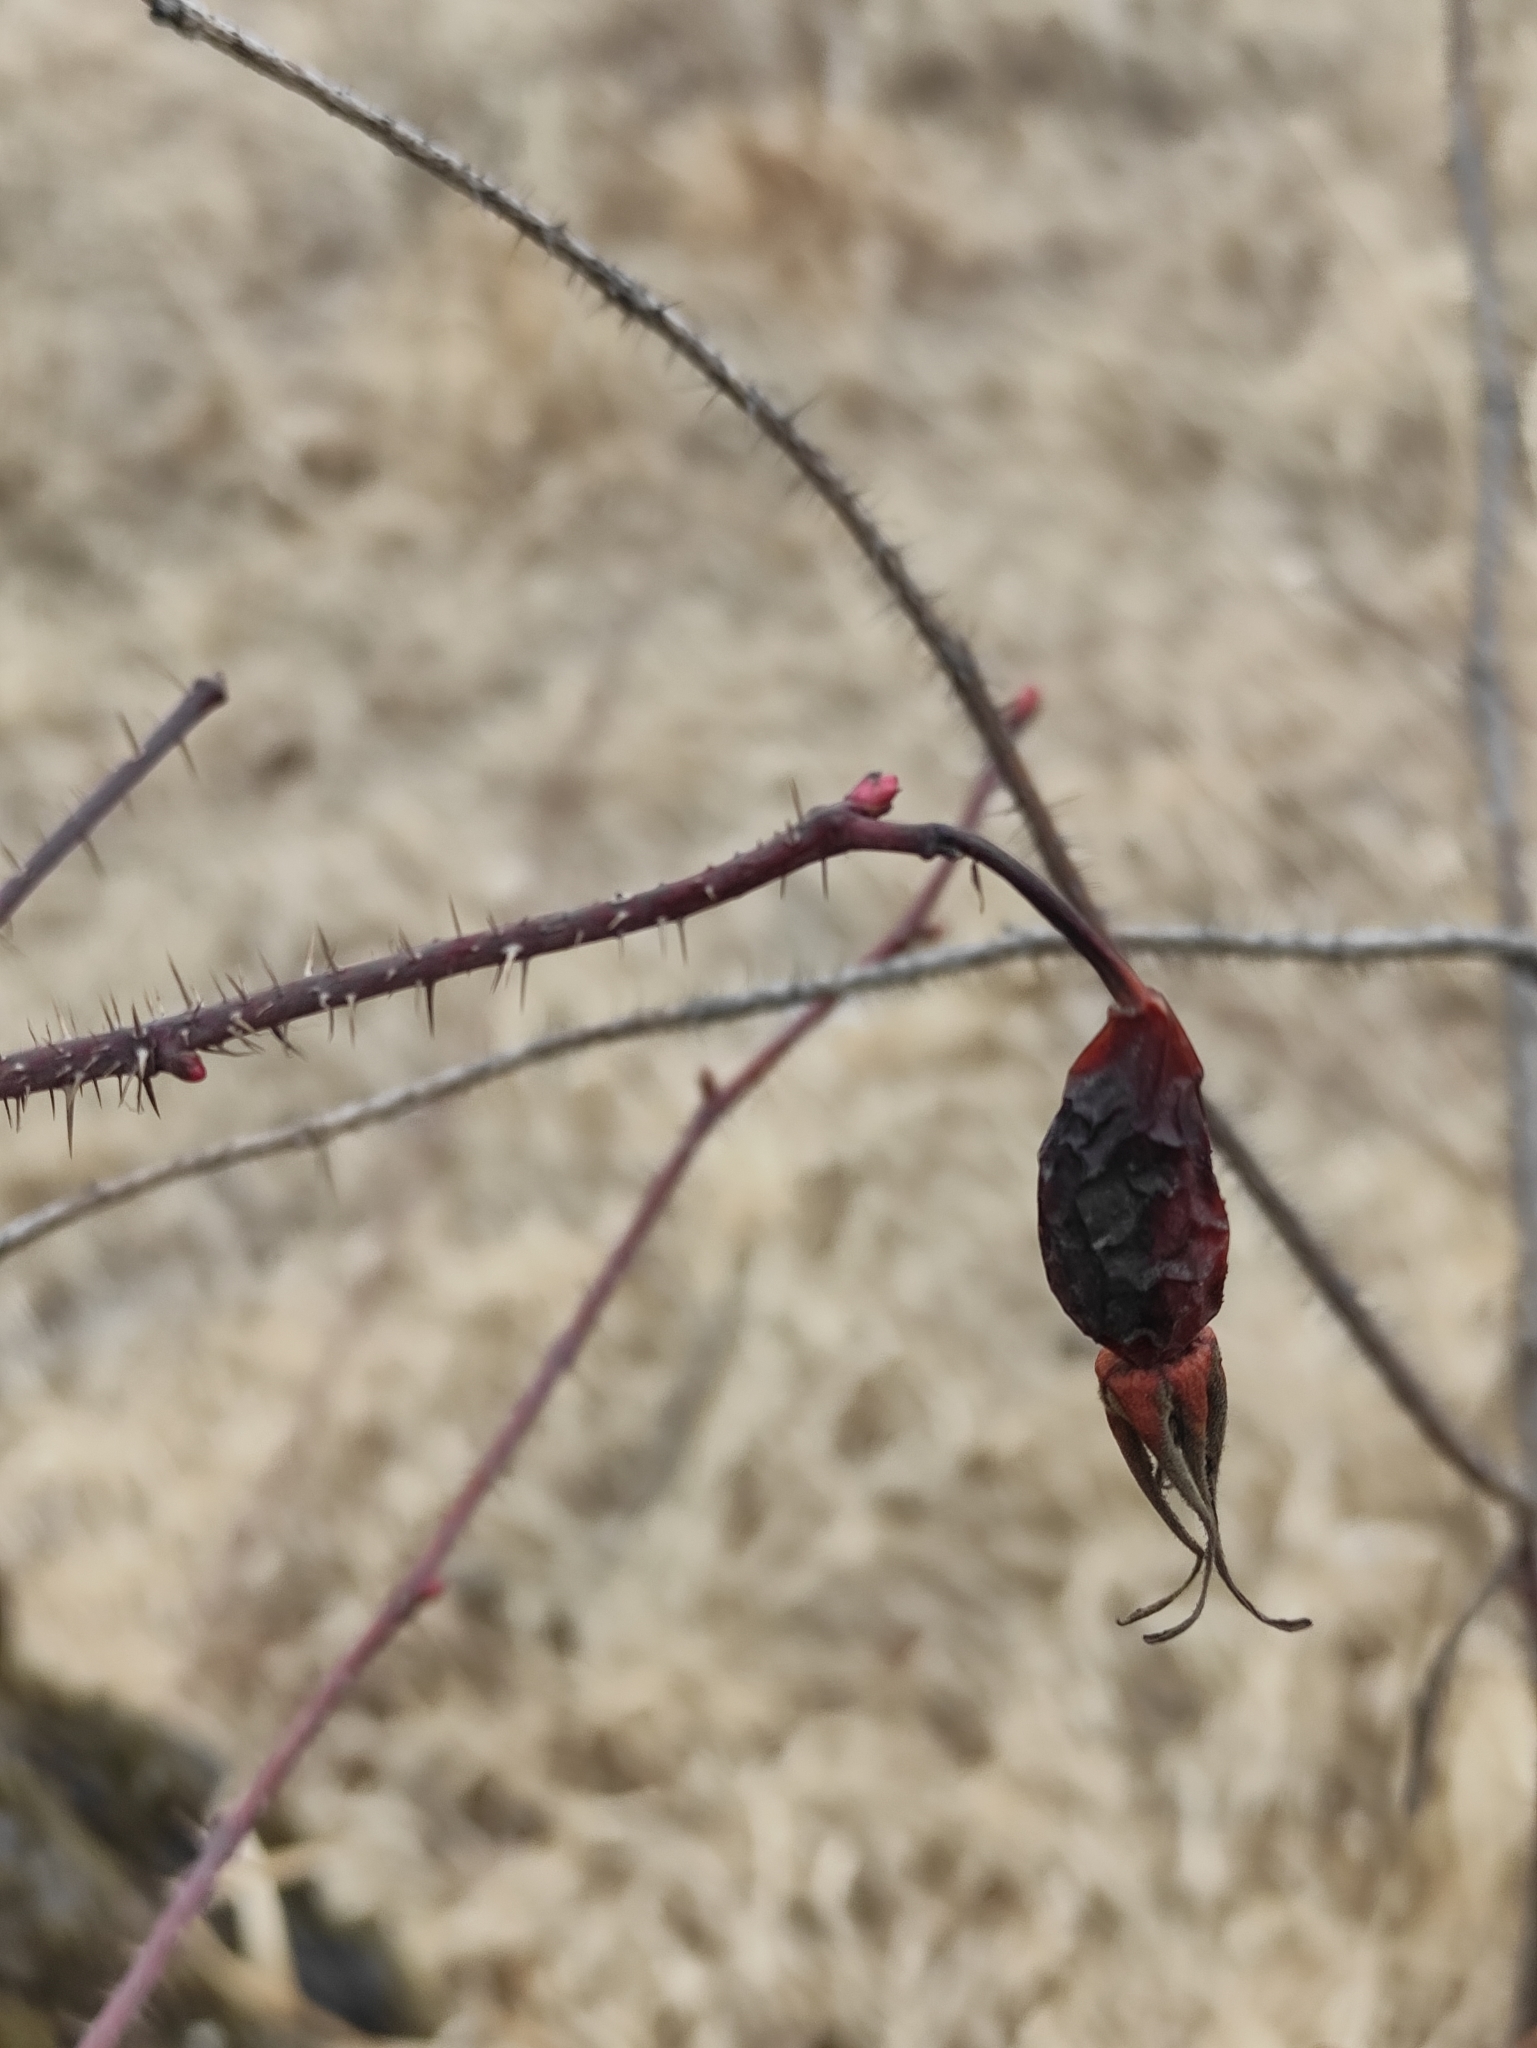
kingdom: Plantae
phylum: Tracheophyta
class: Magnoliopsida
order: Rosales
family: Rosaceae
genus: Rosa
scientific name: Rosa acicularis
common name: Prickly rose
